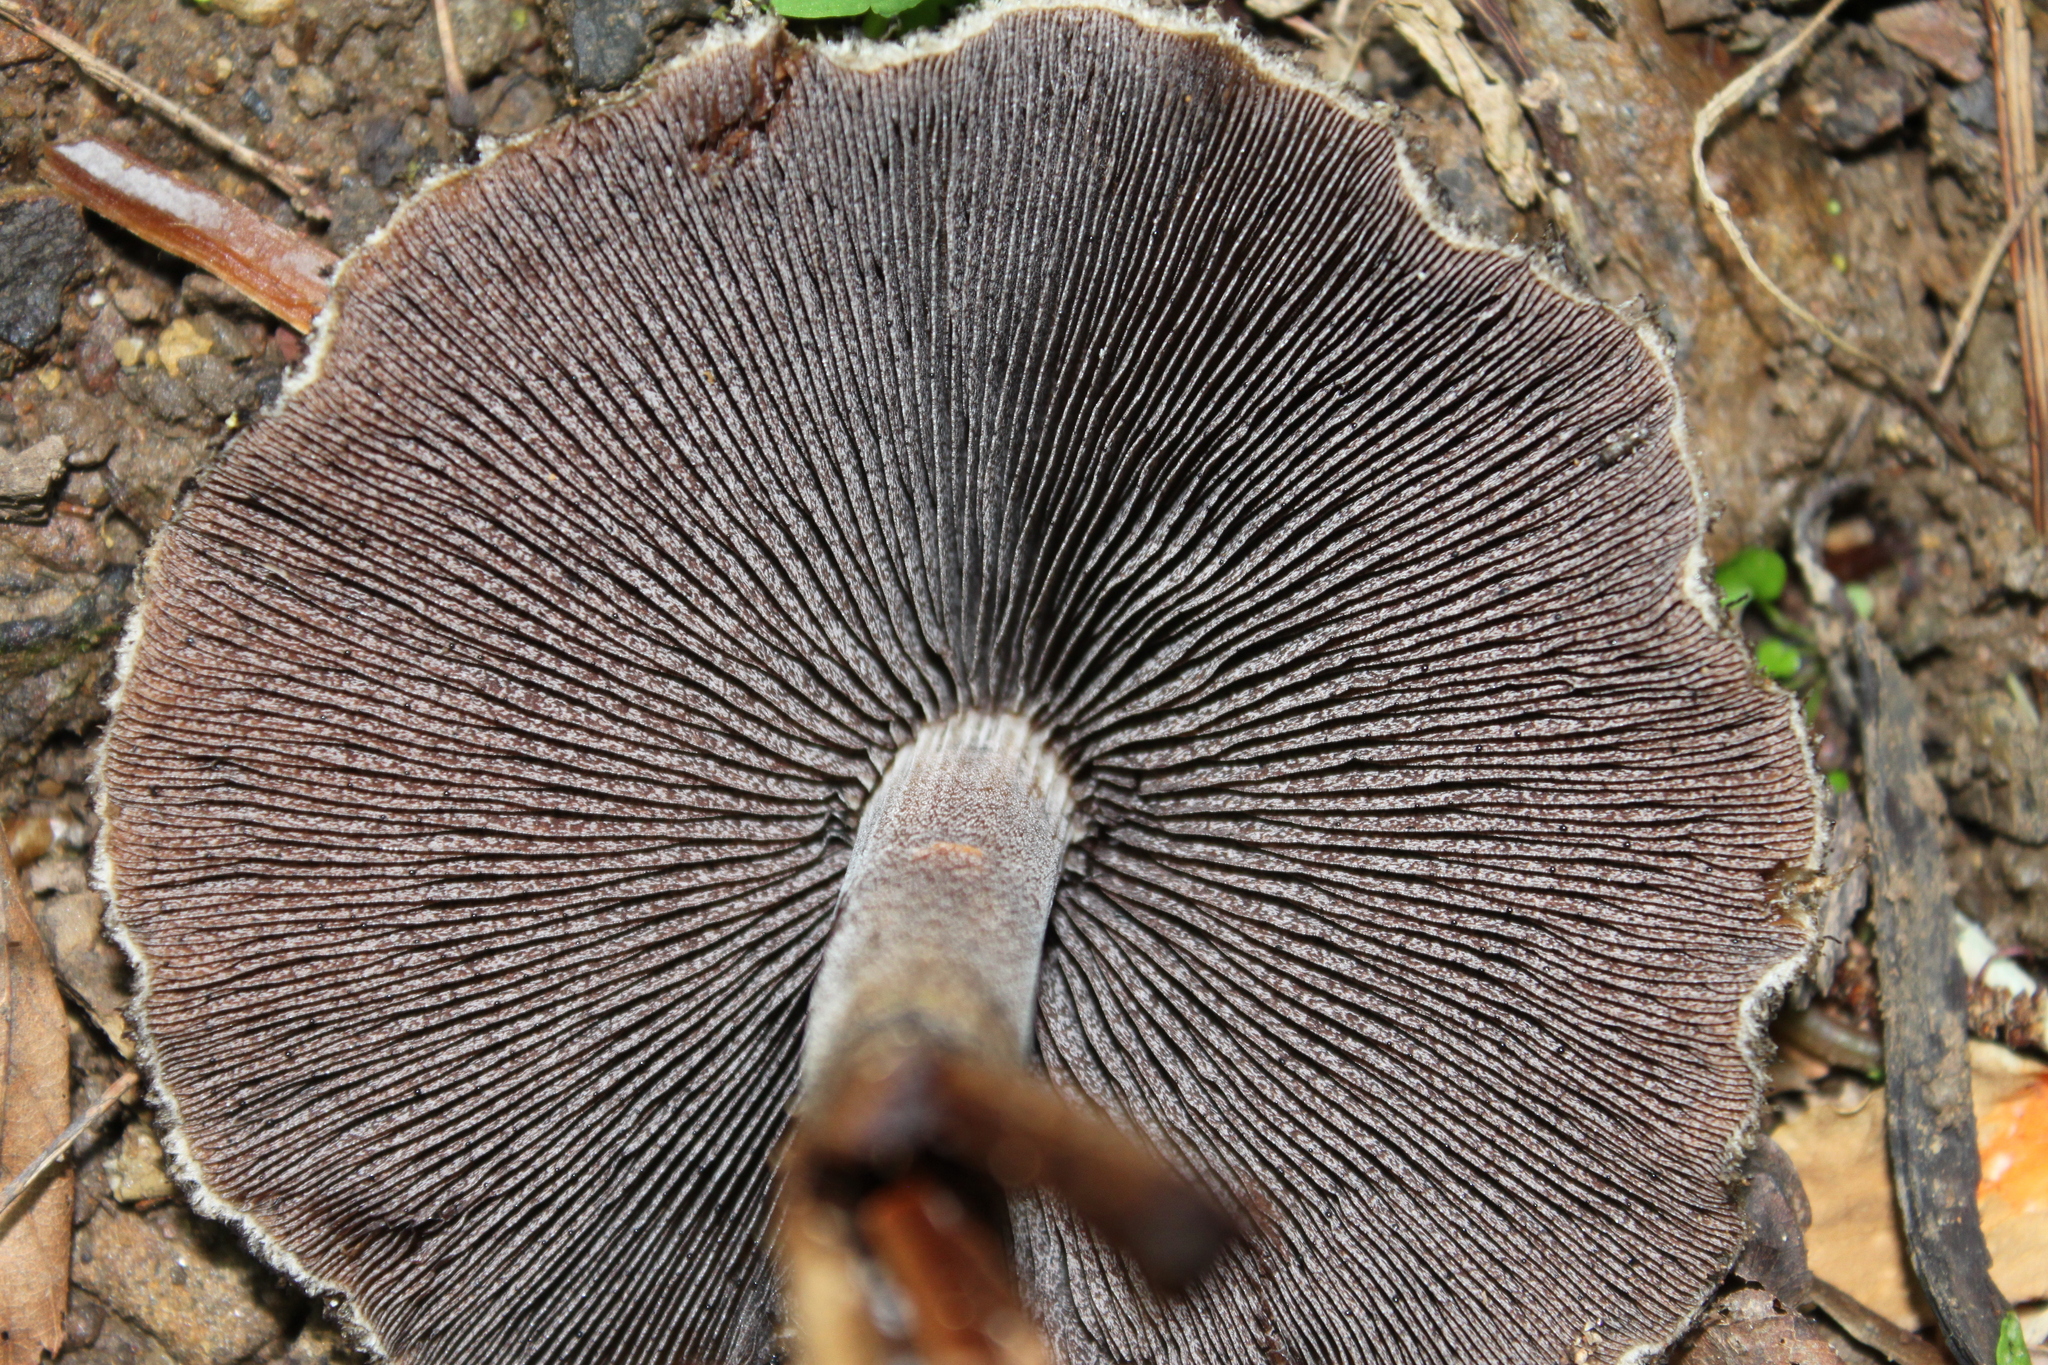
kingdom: Fungi
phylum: Basidiomycota
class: Agaricomycetes
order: Agaricales
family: Psathyrellaceae
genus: Lacrymaria
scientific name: Lacrymaria lacrymabunda
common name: Weeping widow
